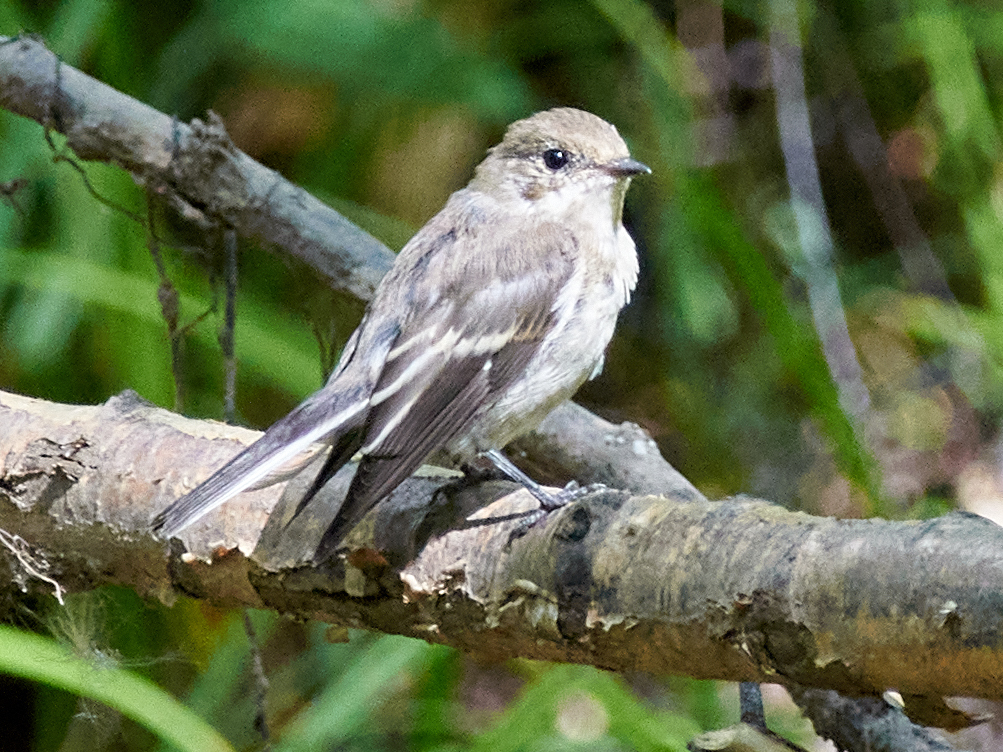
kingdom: Animalia
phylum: Chordata
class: Aves
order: Passeriformes
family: Muscicapidae
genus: Ficedula
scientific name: Ficedula hypoleuca
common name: European pied flycatcher
